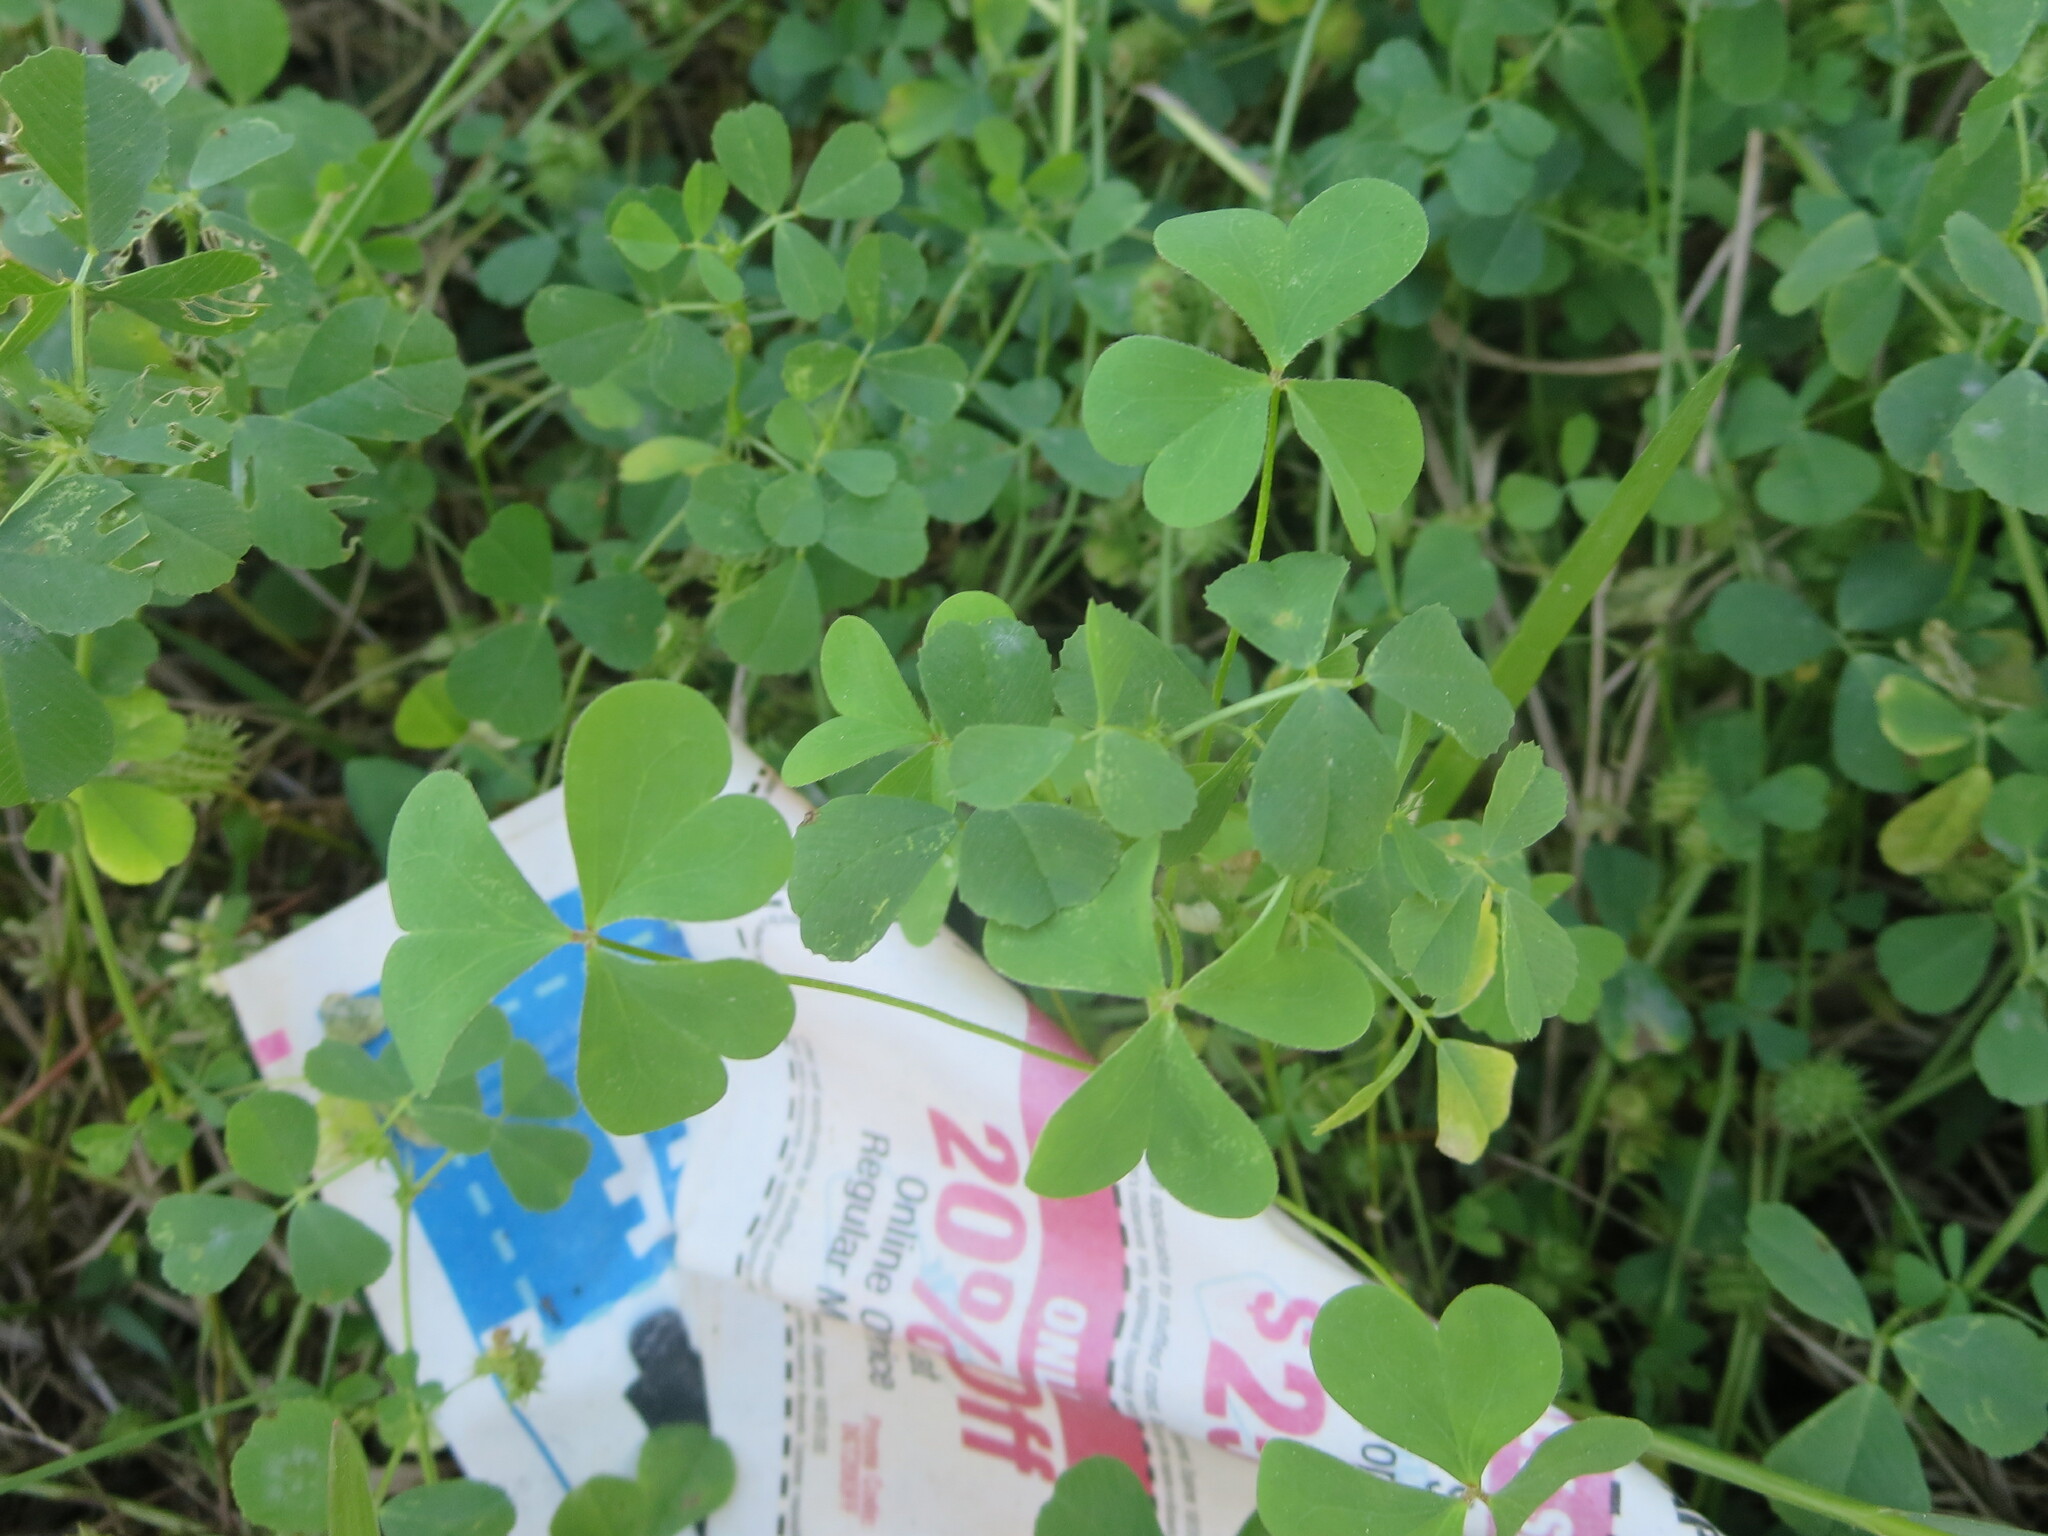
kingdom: Plantae
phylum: Tracheophyta
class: Magnoliopsida
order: Fabales
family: Fabaceae
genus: Medicago
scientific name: Medicago polymorpha
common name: Burclover
